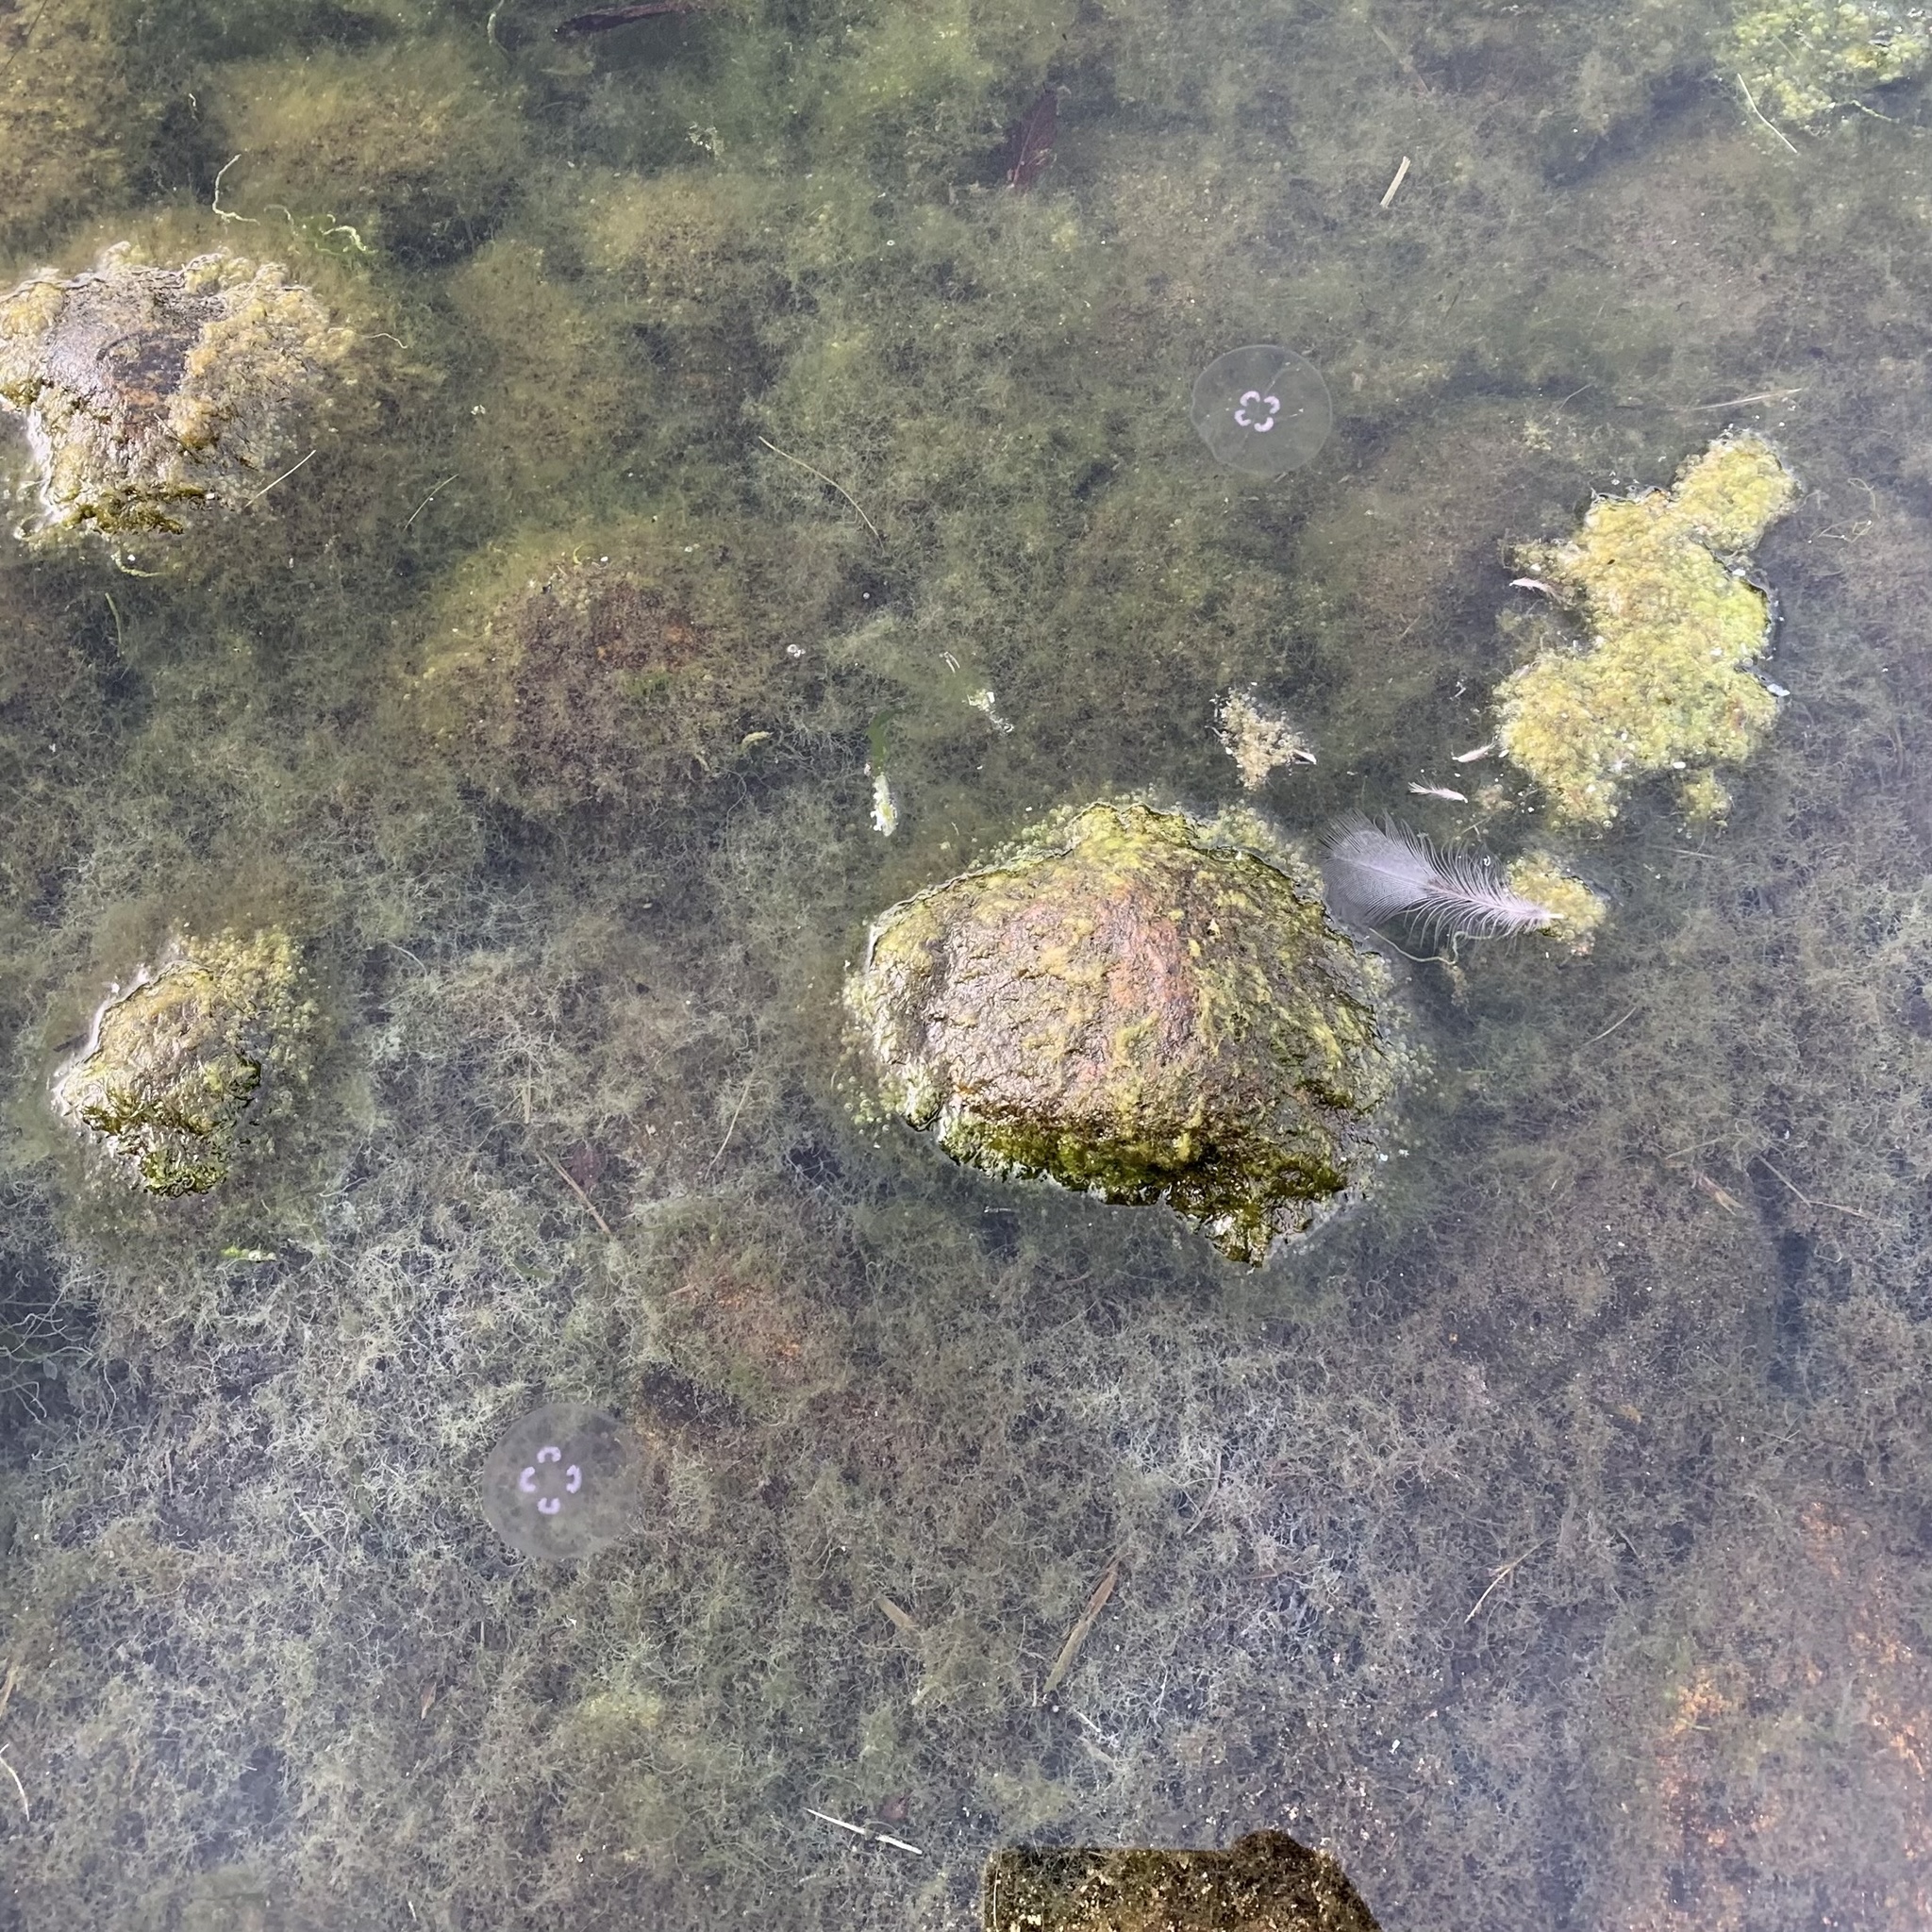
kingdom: Animalia
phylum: Cnidaria
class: Scyphozoa
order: Semaeostomeae
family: Ulmaridae
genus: Aurelia
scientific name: Aurelia aurita
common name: Moon jellyfish
